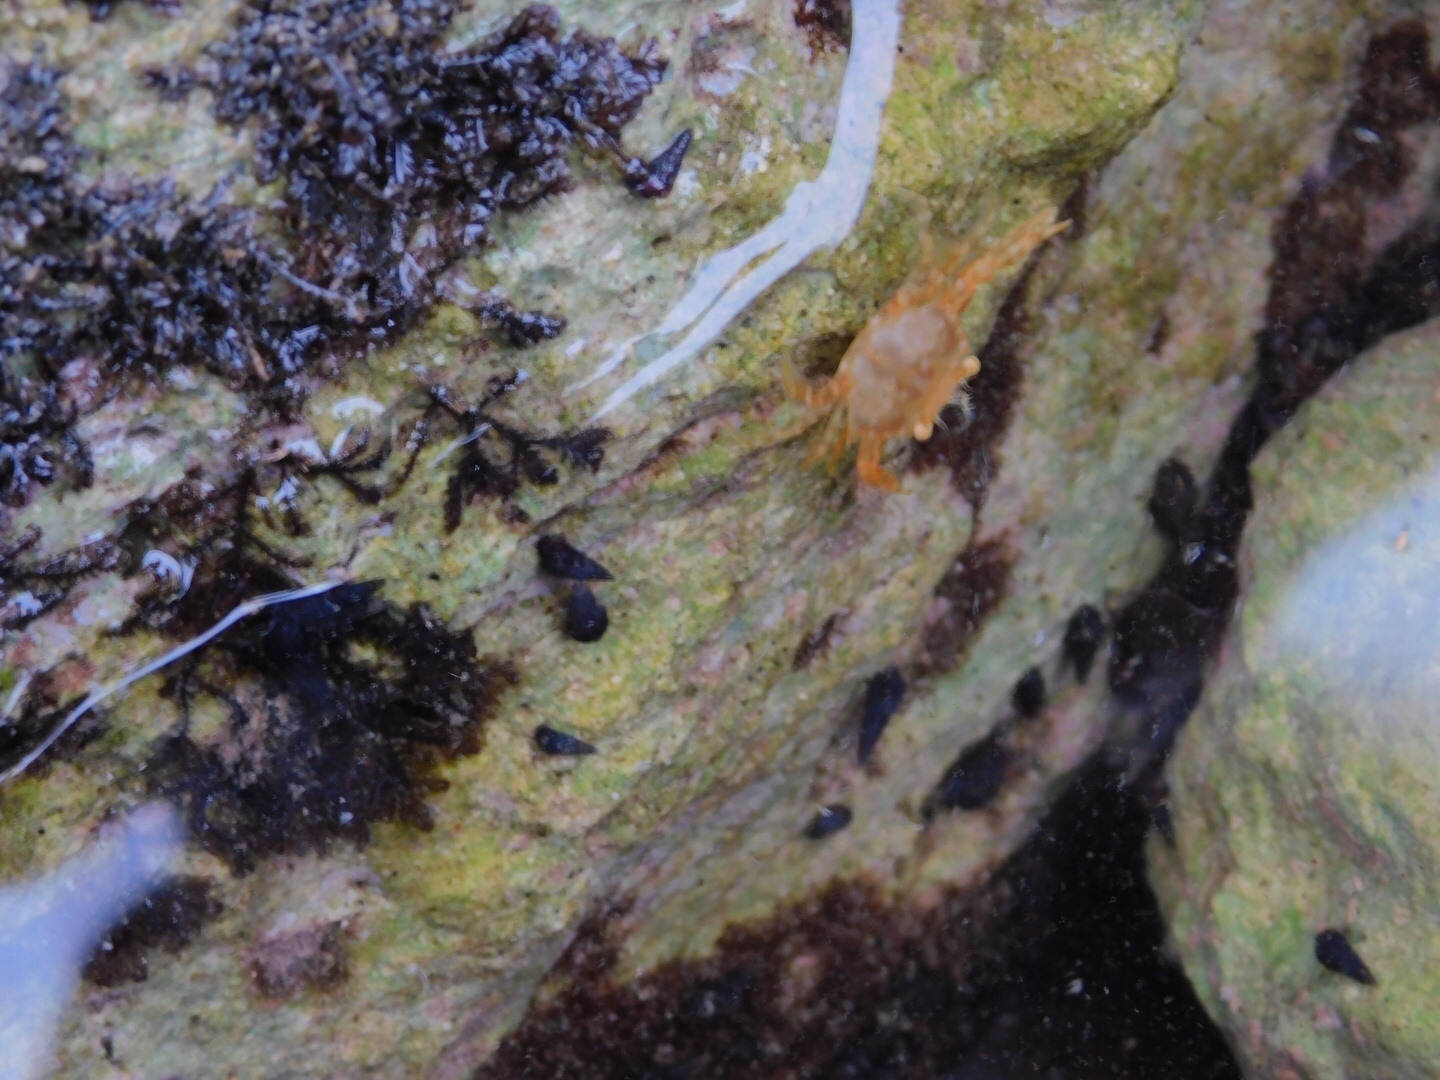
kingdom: Animalia
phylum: Arthropoda
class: Malacostraca
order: Decapoda
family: Portunidae
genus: Portunus
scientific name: Portunus sayi
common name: Sargassum crab
